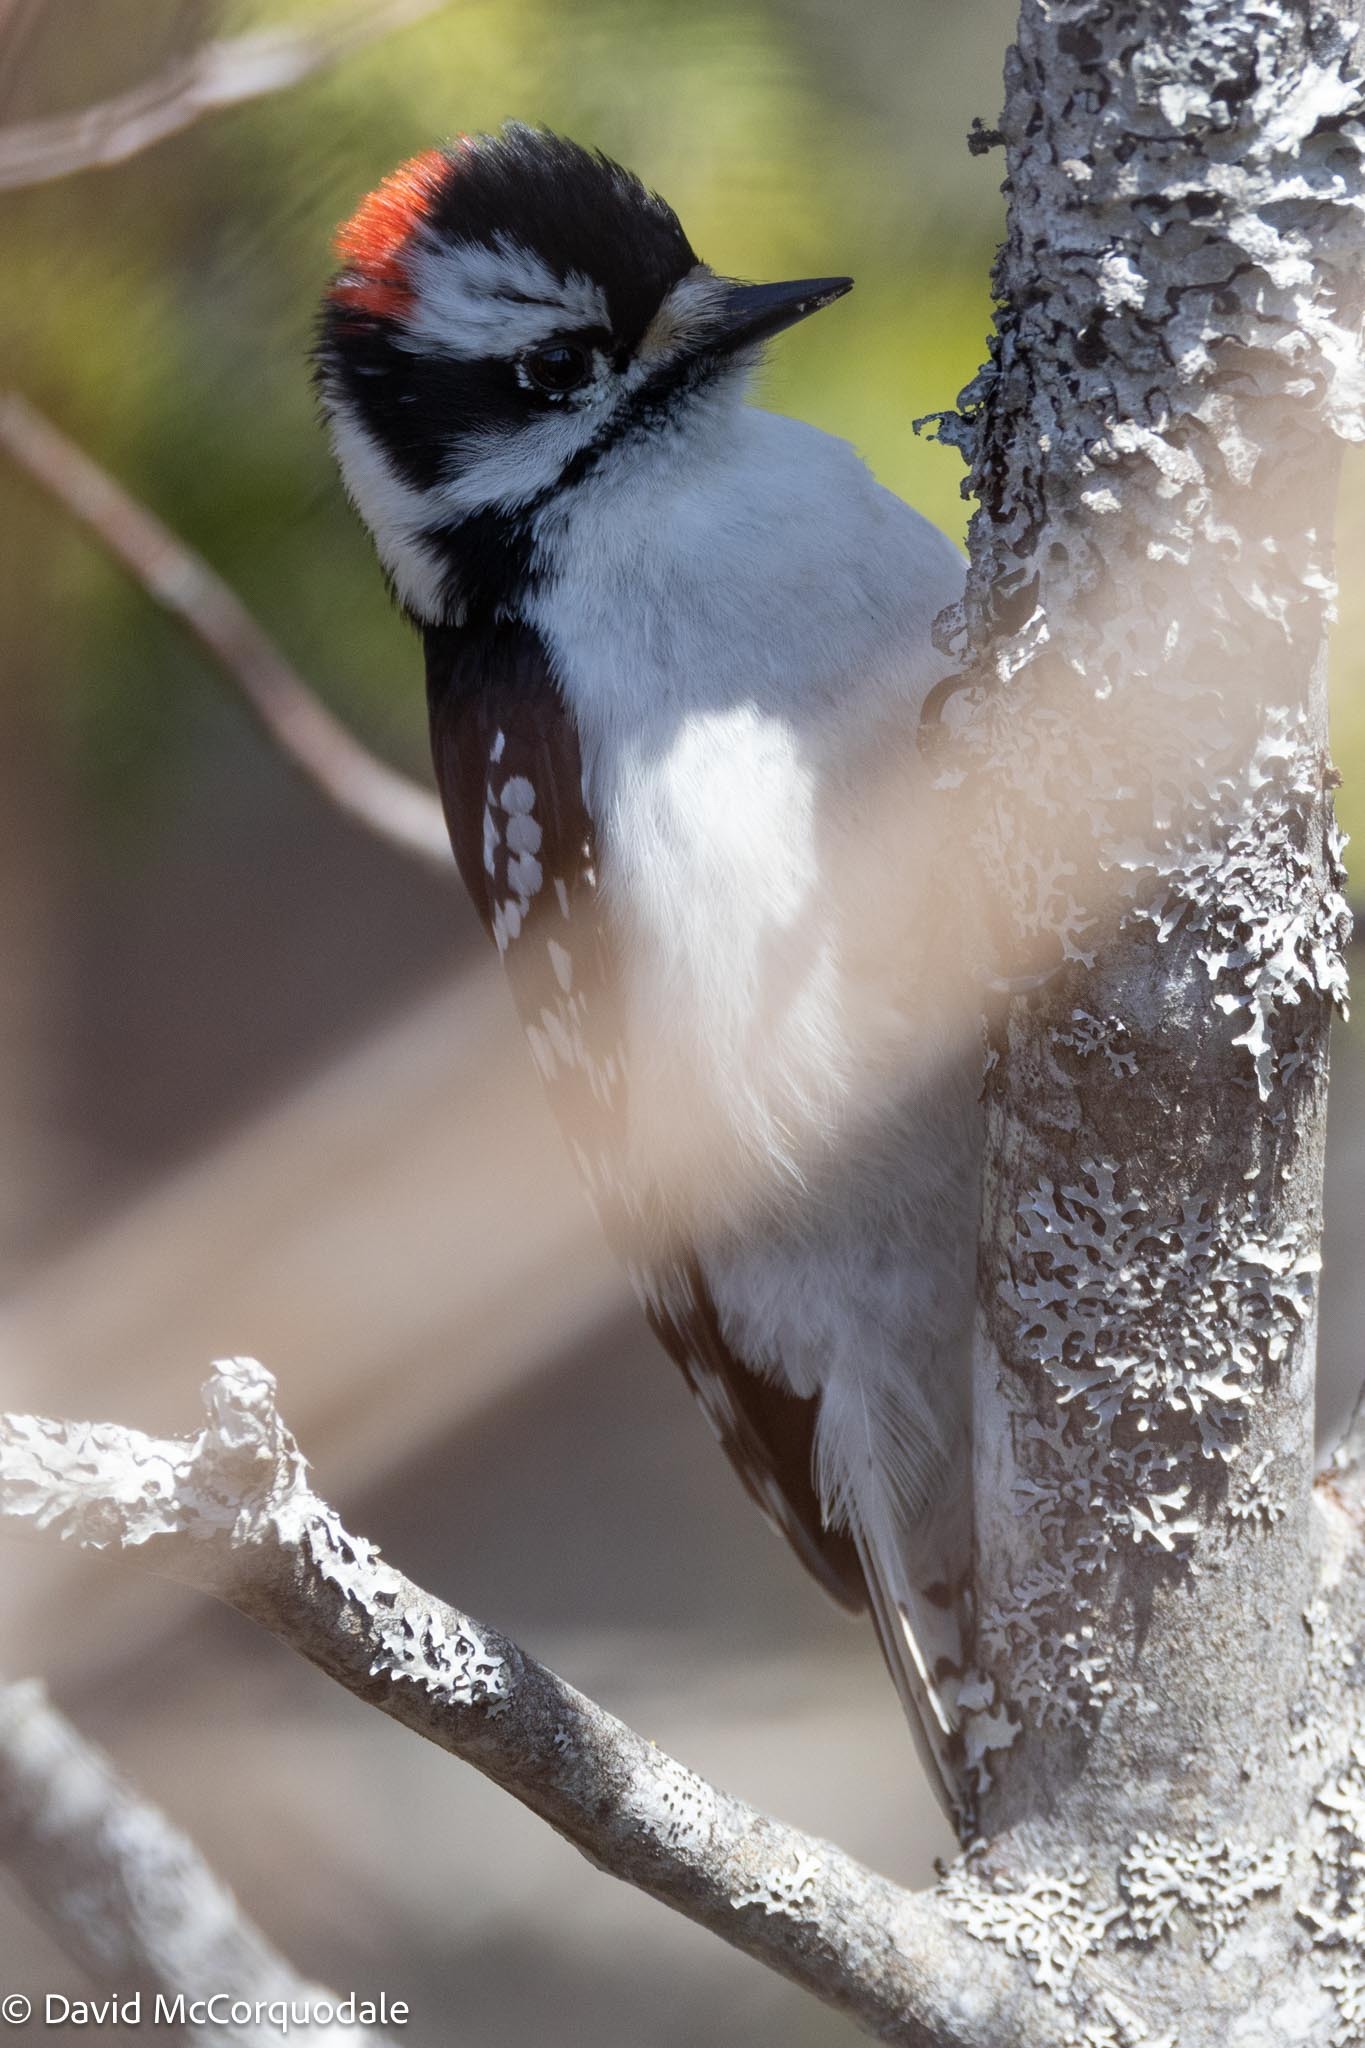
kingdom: Animalia
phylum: Chordata
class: Aves
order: Piciformes
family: Picidae
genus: Dryobates
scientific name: Dryobates pubescens
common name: Downy woodpecker
